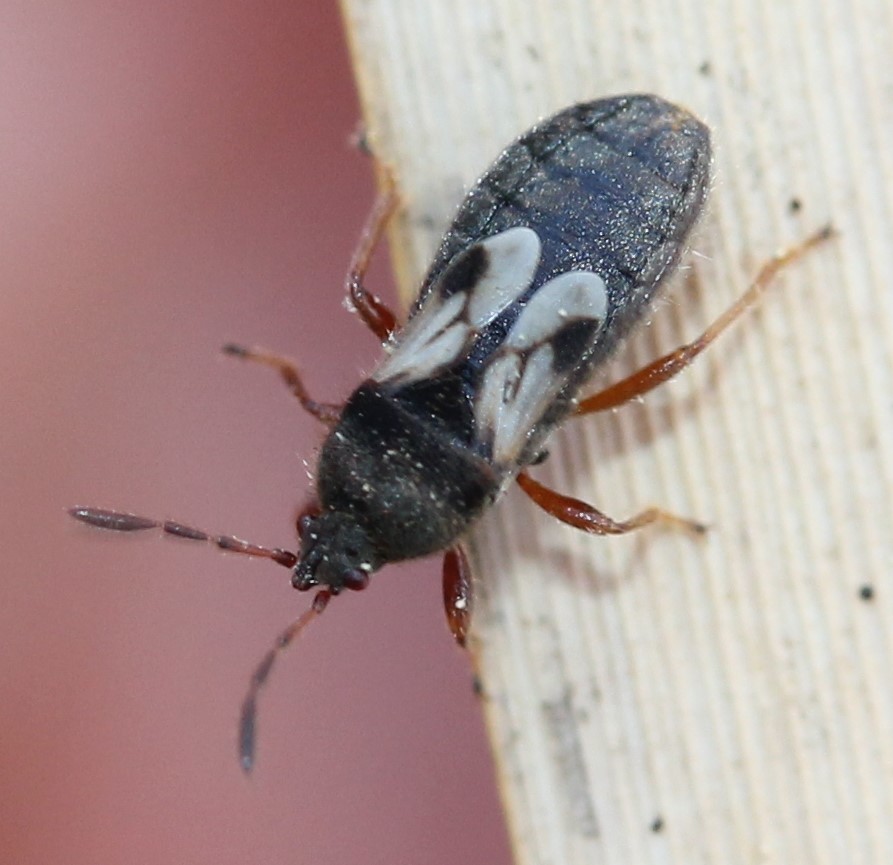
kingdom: Animalia
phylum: Arthropoda
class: Insecta
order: Hemiptera
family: Blissidae
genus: Blissus
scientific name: Blissus leucopterus
